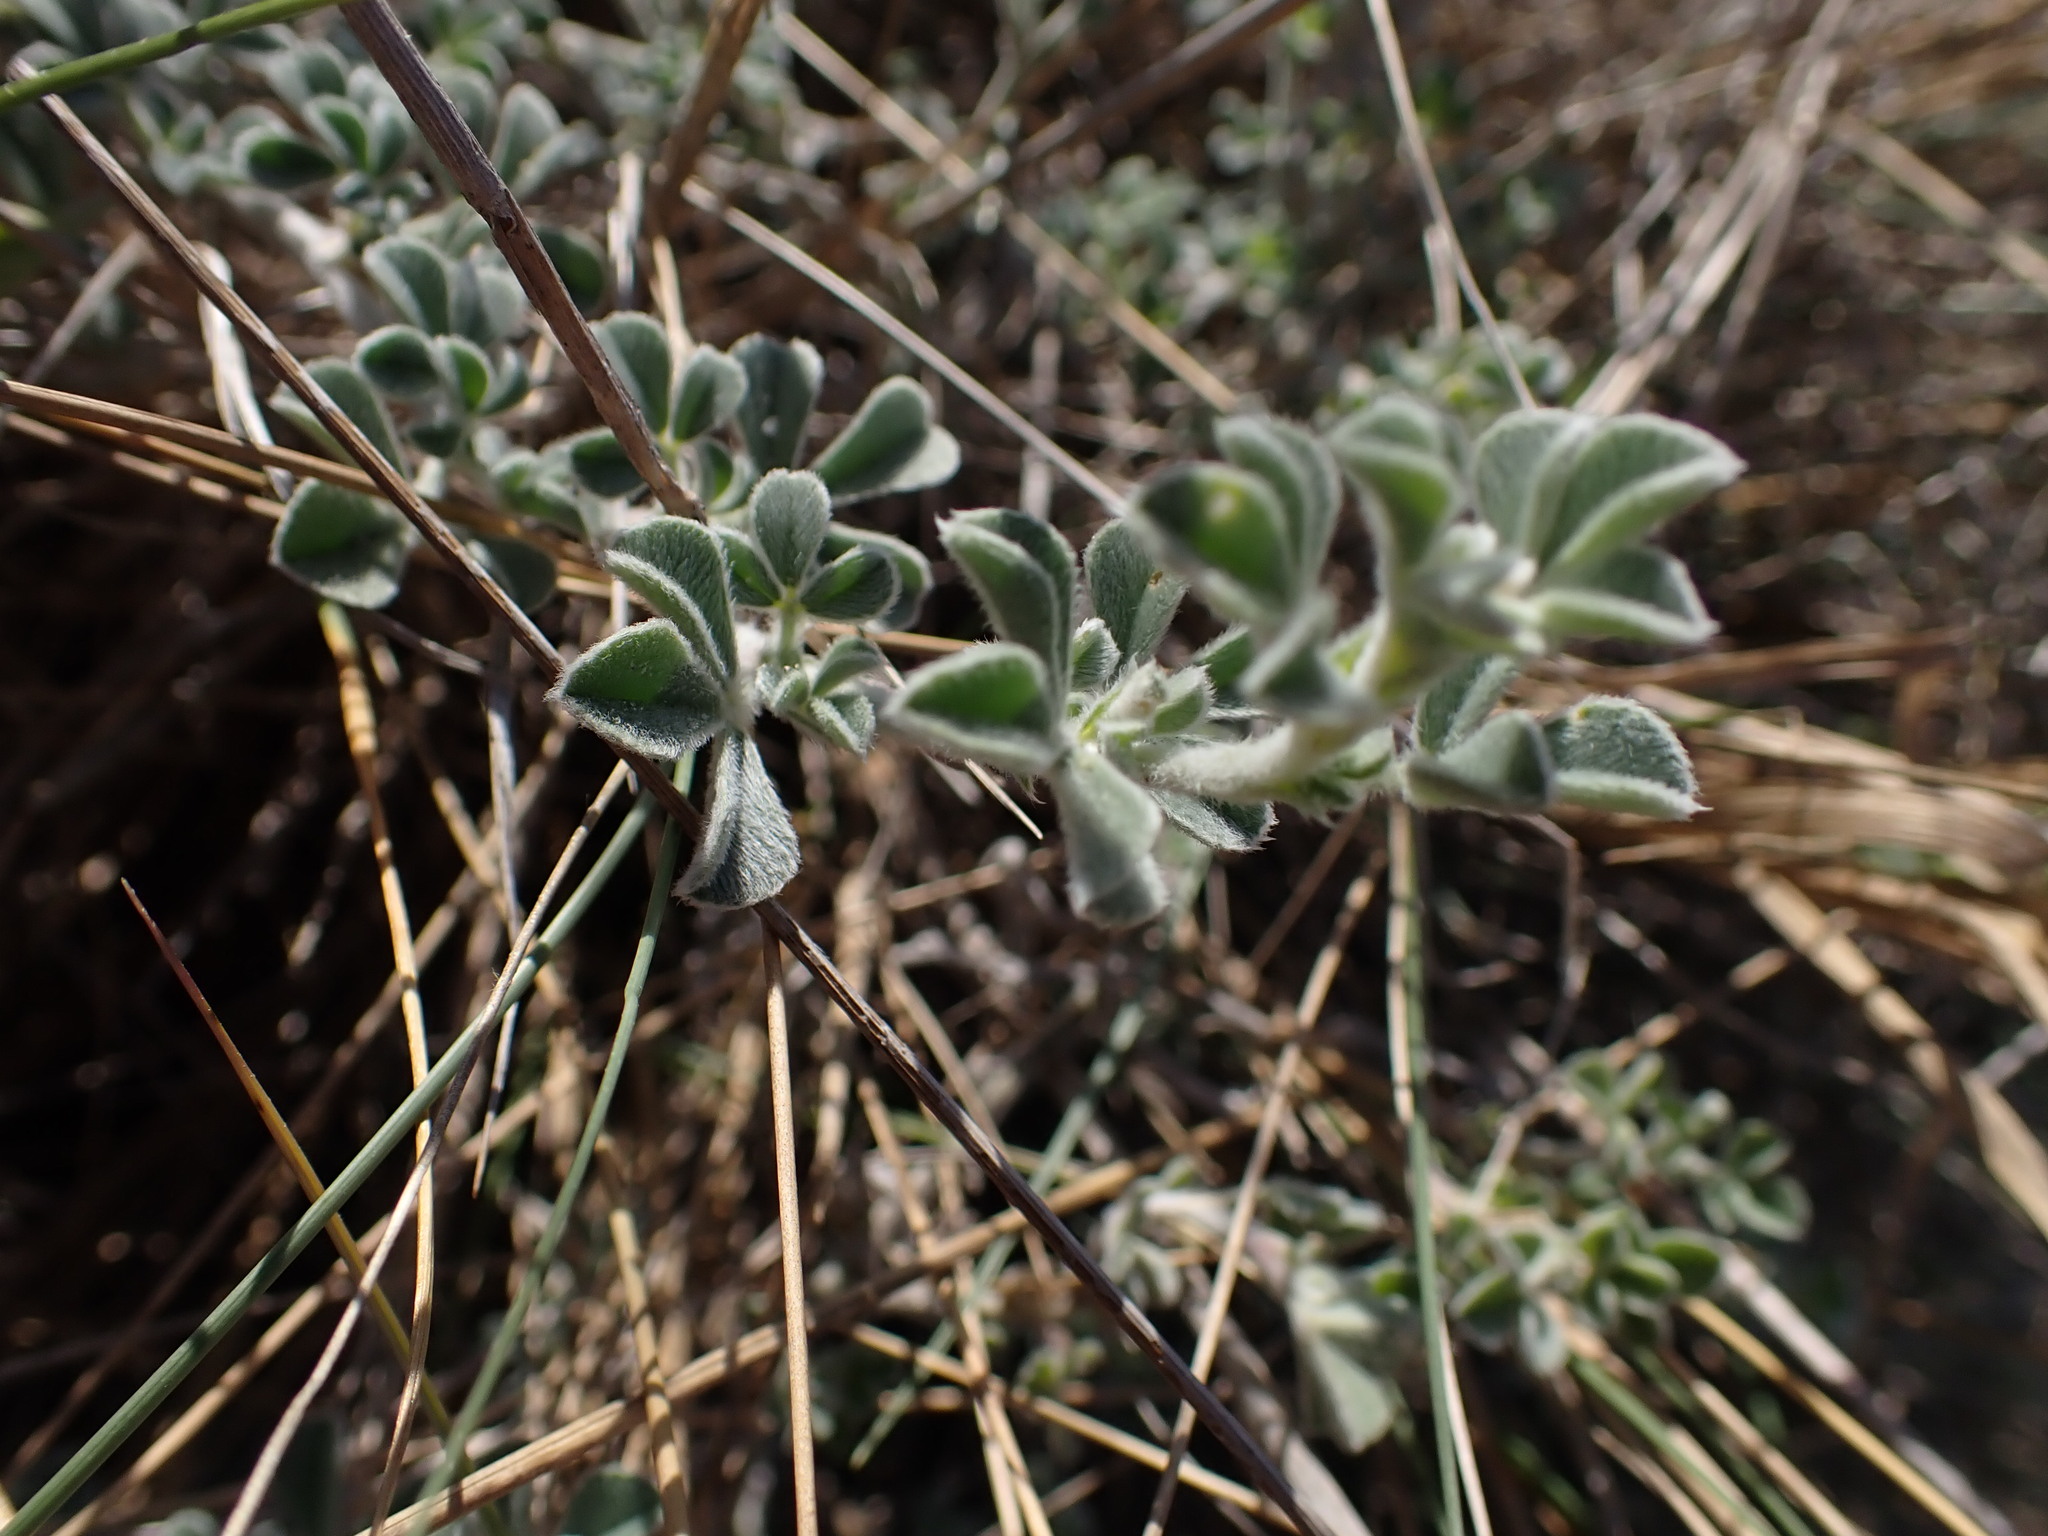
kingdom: Plantae
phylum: Tracheophyta
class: Magnoliopsida
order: Fabales
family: Fabaceae
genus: Medicago
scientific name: Medicago marina
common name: Sea medick
